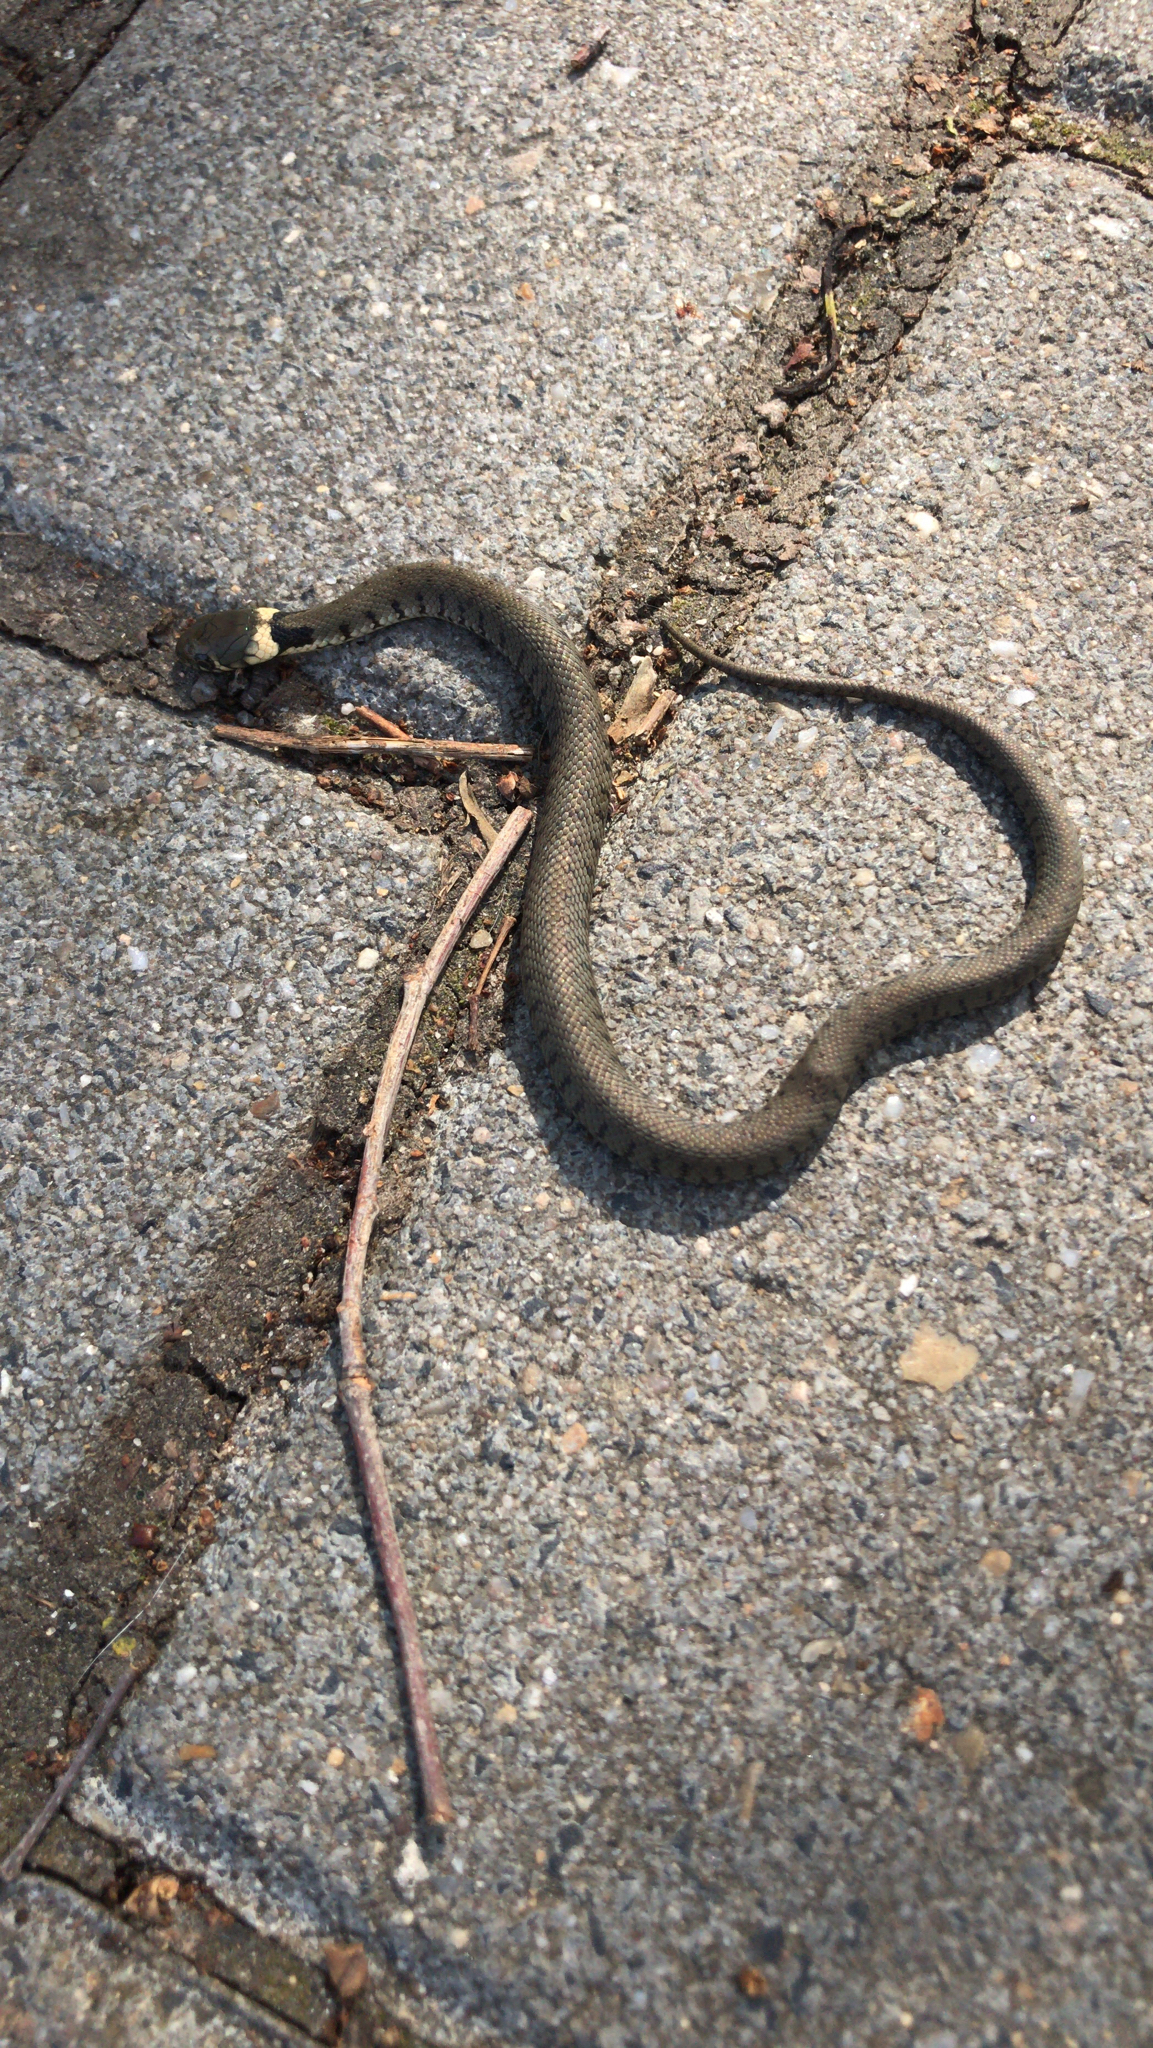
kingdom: Animalia
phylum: Chordata
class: Squamata
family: Colubridae
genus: Natrix
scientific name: Natrix helvetica
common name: Banded grass snake
